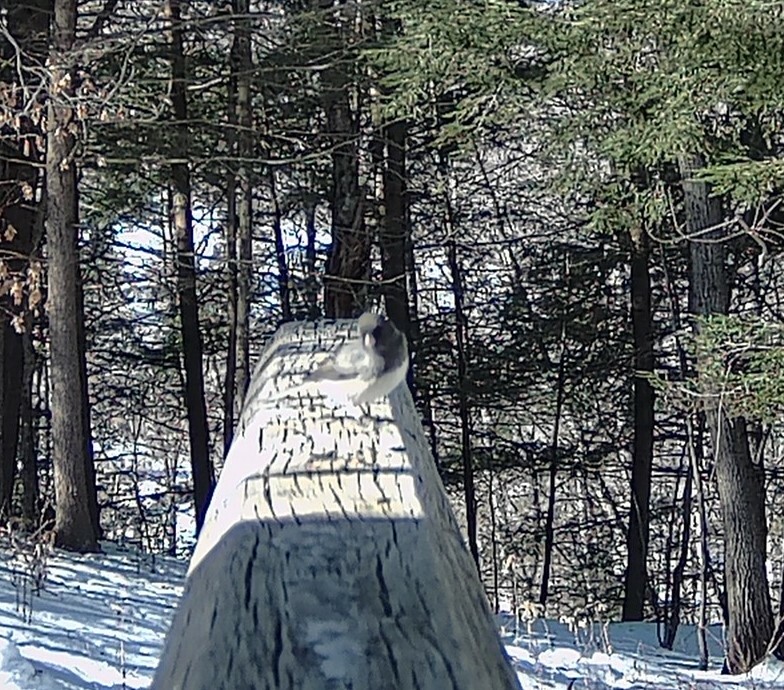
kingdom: Animalia
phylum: Chordata
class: Aves
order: Passeriformes
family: Passerellidae
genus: Junco
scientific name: Junco hyemalis
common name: Dark-eyed junco
